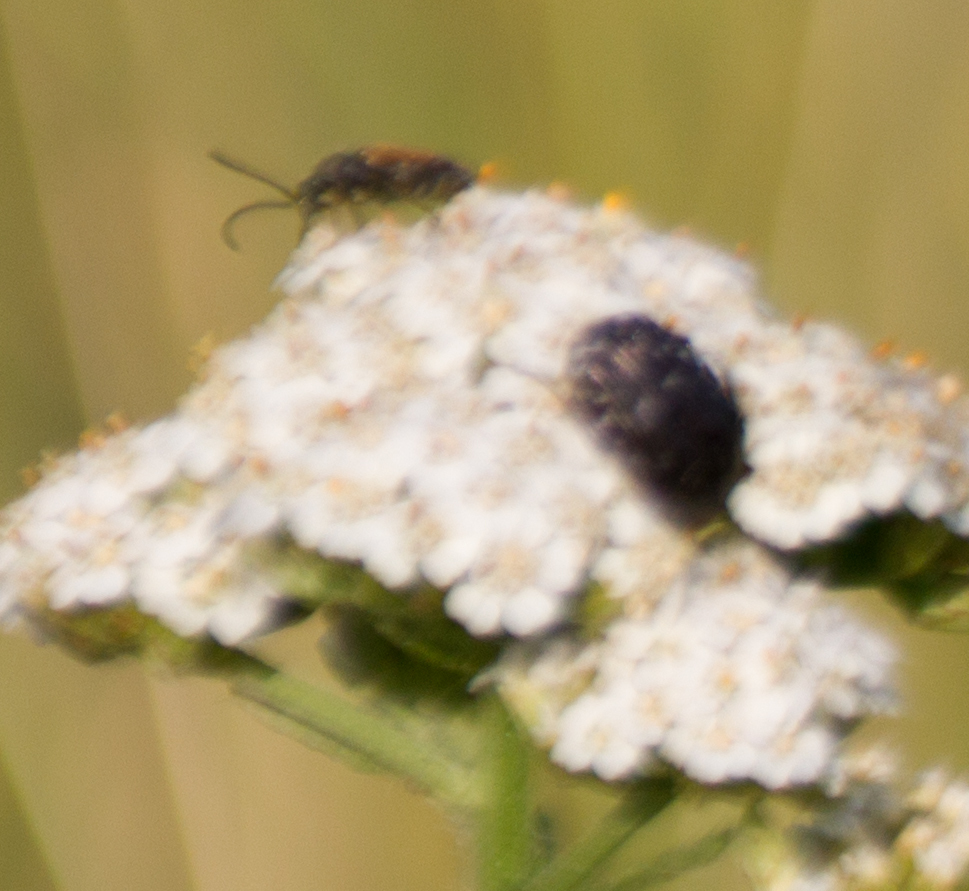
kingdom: Animalia
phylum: Arthropoda
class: Insecta
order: Coleoptera
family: Scarabaeidae
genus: Oxythyrea
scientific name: Oxythyrea funesta
